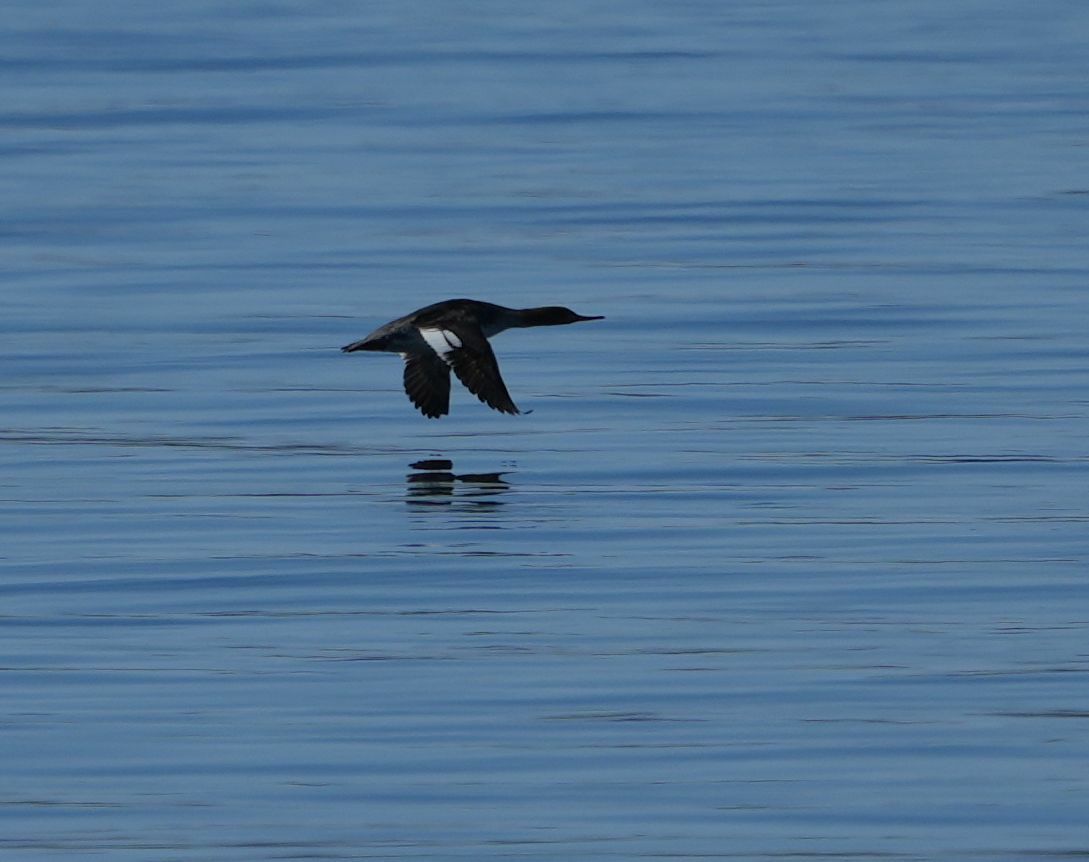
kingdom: Animalia
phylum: Chordata
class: Aves
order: Anseriformes
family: Anatidae
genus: Mergus
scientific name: Mergus serrator
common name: Red-breasted merganser
